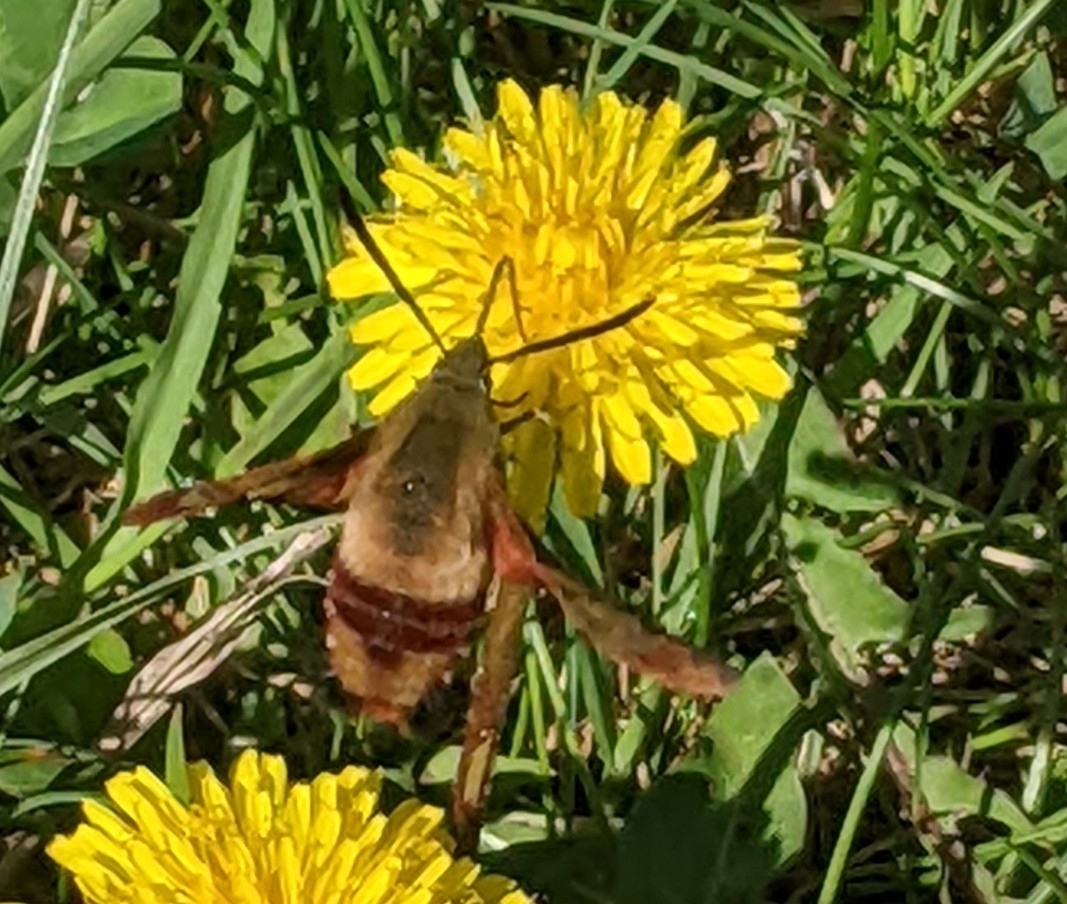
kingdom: Animalia
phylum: Arthropoda
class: Insecta
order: Lepidoptera
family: Sphingidae
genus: Hemaris
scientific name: Hemaris thysbe
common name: Common clear-wing
